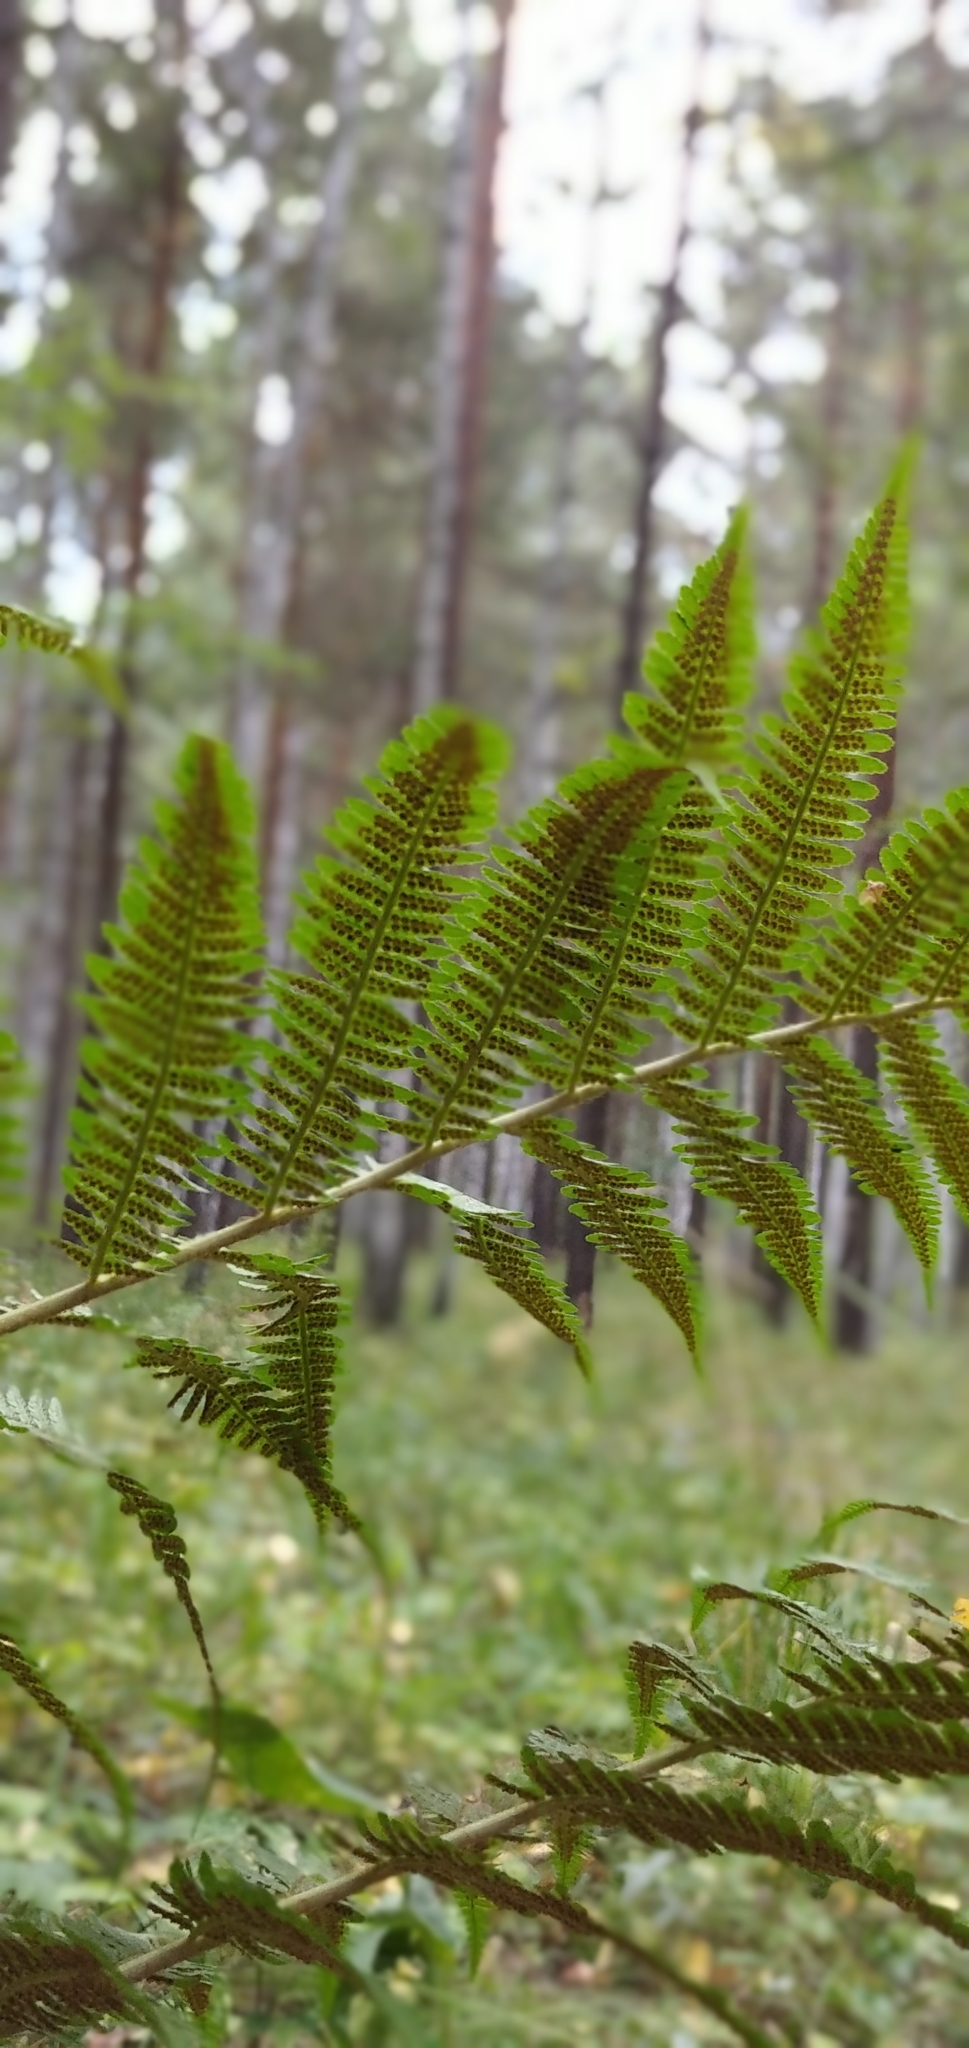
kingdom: Plantae
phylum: Tracheophyta
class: Polypodiopsida
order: Polypodiales
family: Dryopteridaceae
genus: Dryopteris
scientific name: Dryopteris filix-mas
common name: Male fern
